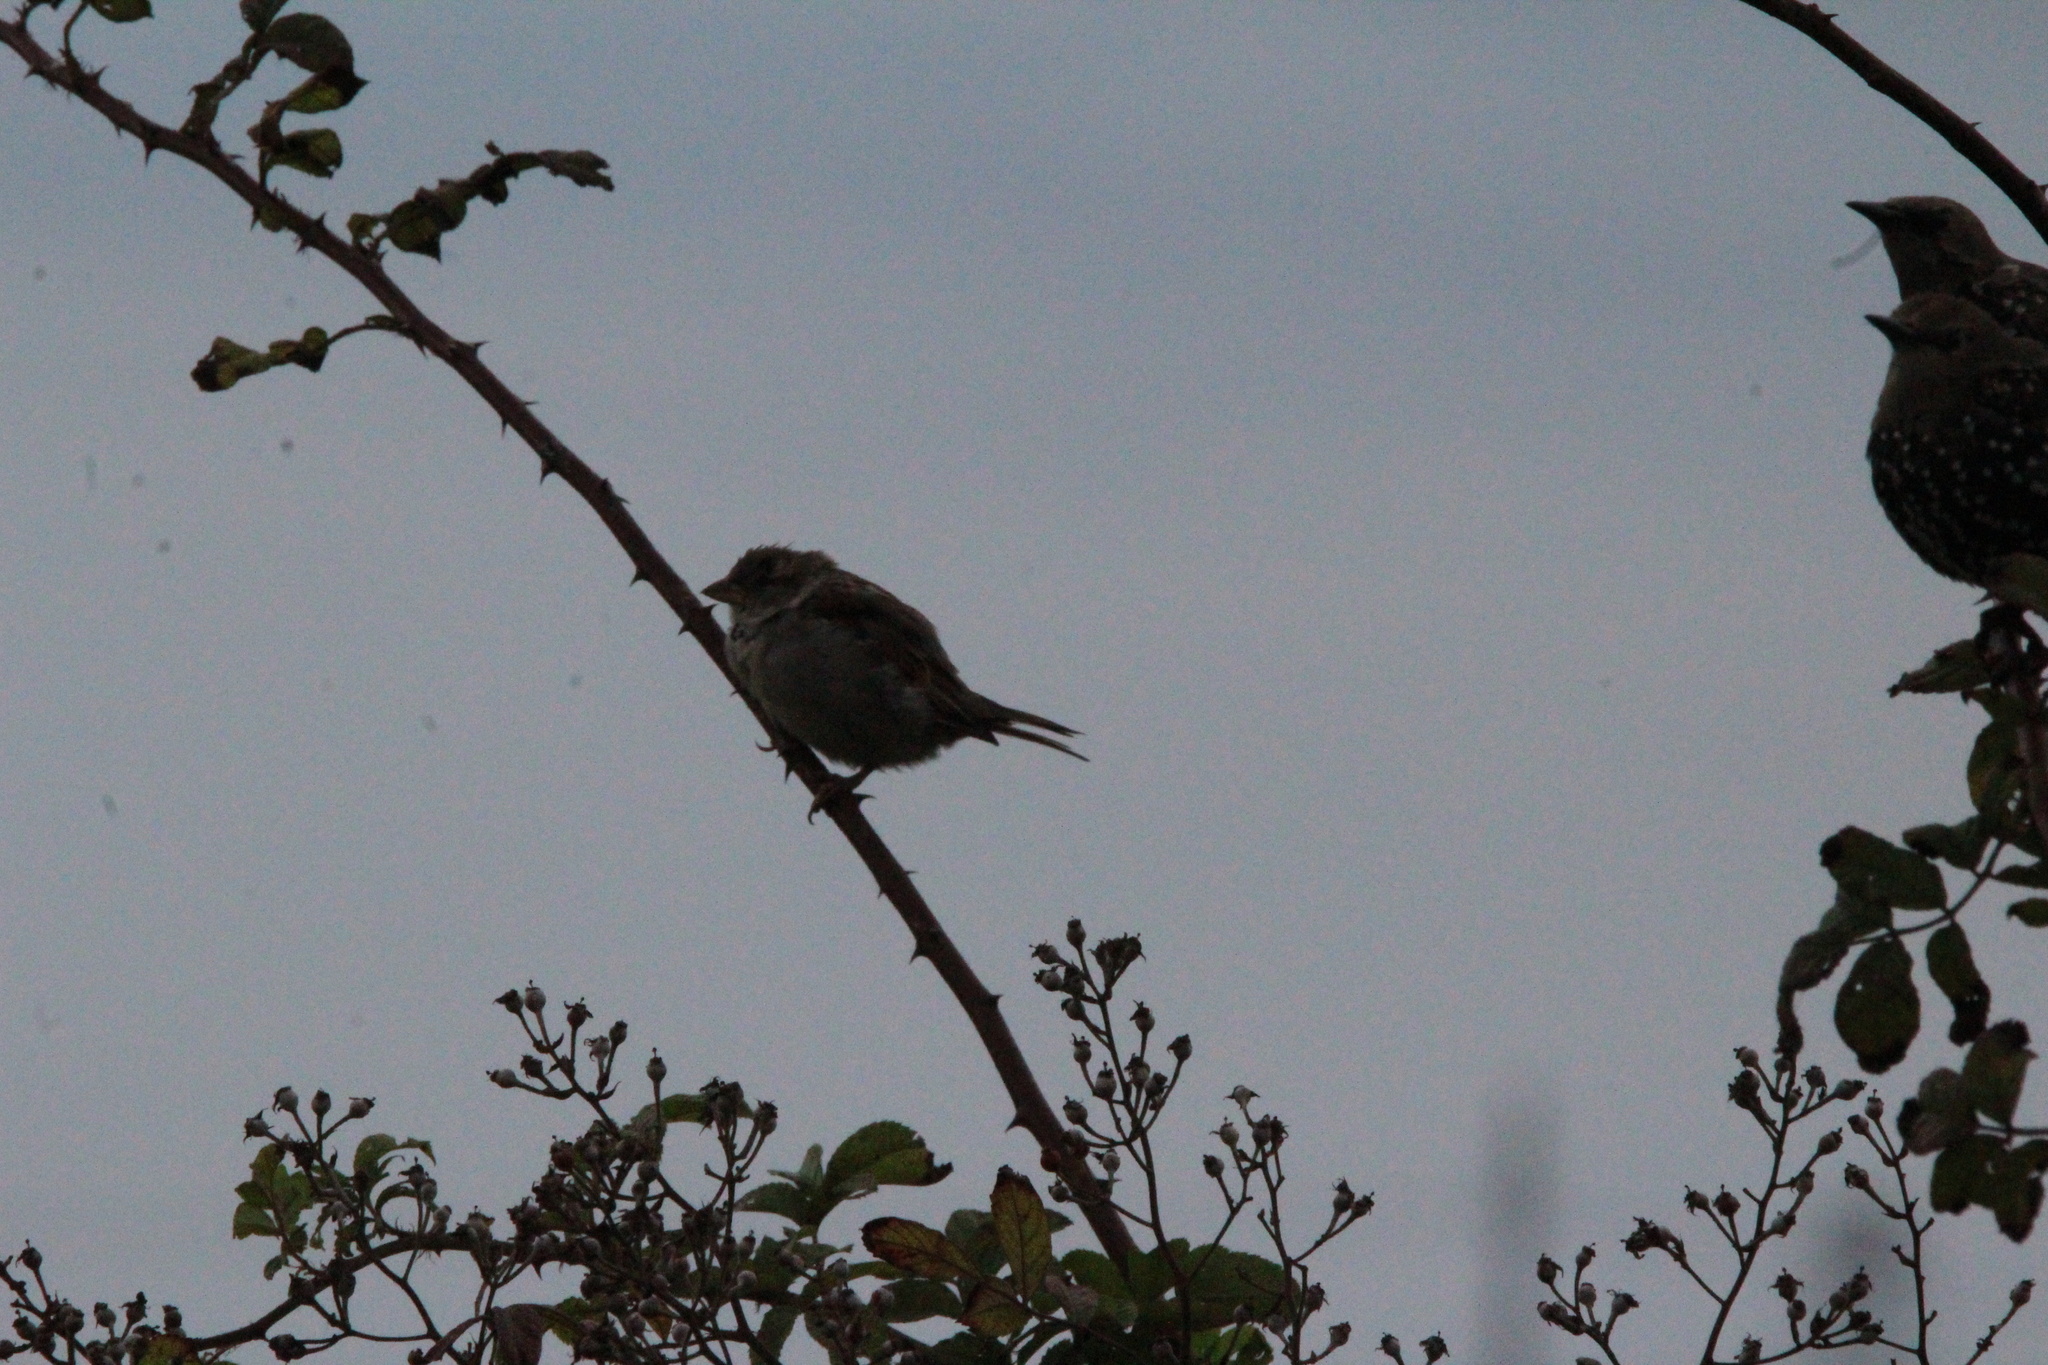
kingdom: Animalia
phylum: Chordata
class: Aves
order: Passeriformes
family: Passeridae
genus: Passer
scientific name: Passer domesticus
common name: House sparrow
